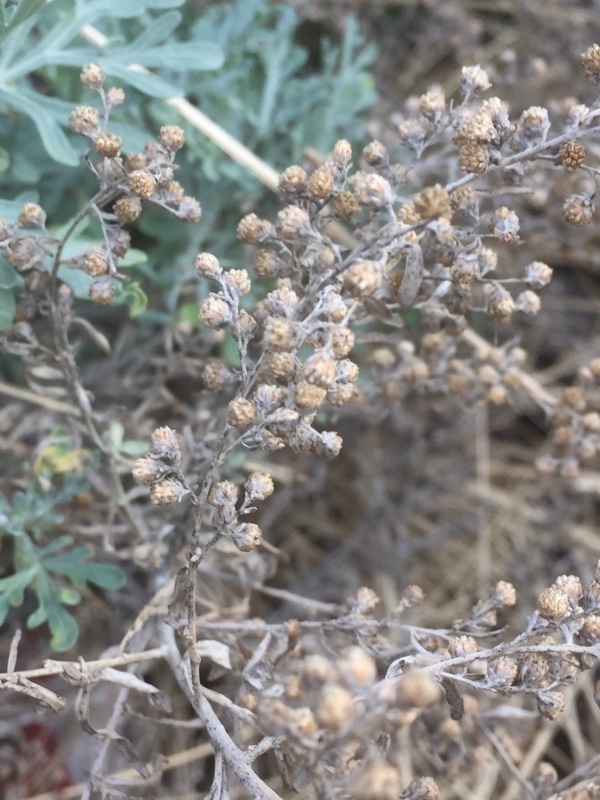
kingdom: Plantae
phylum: Tracheophyta
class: Magnoliopsida
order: Asterales
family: Asteraceae
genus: Artemisia
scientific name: Artemisia thuscula
